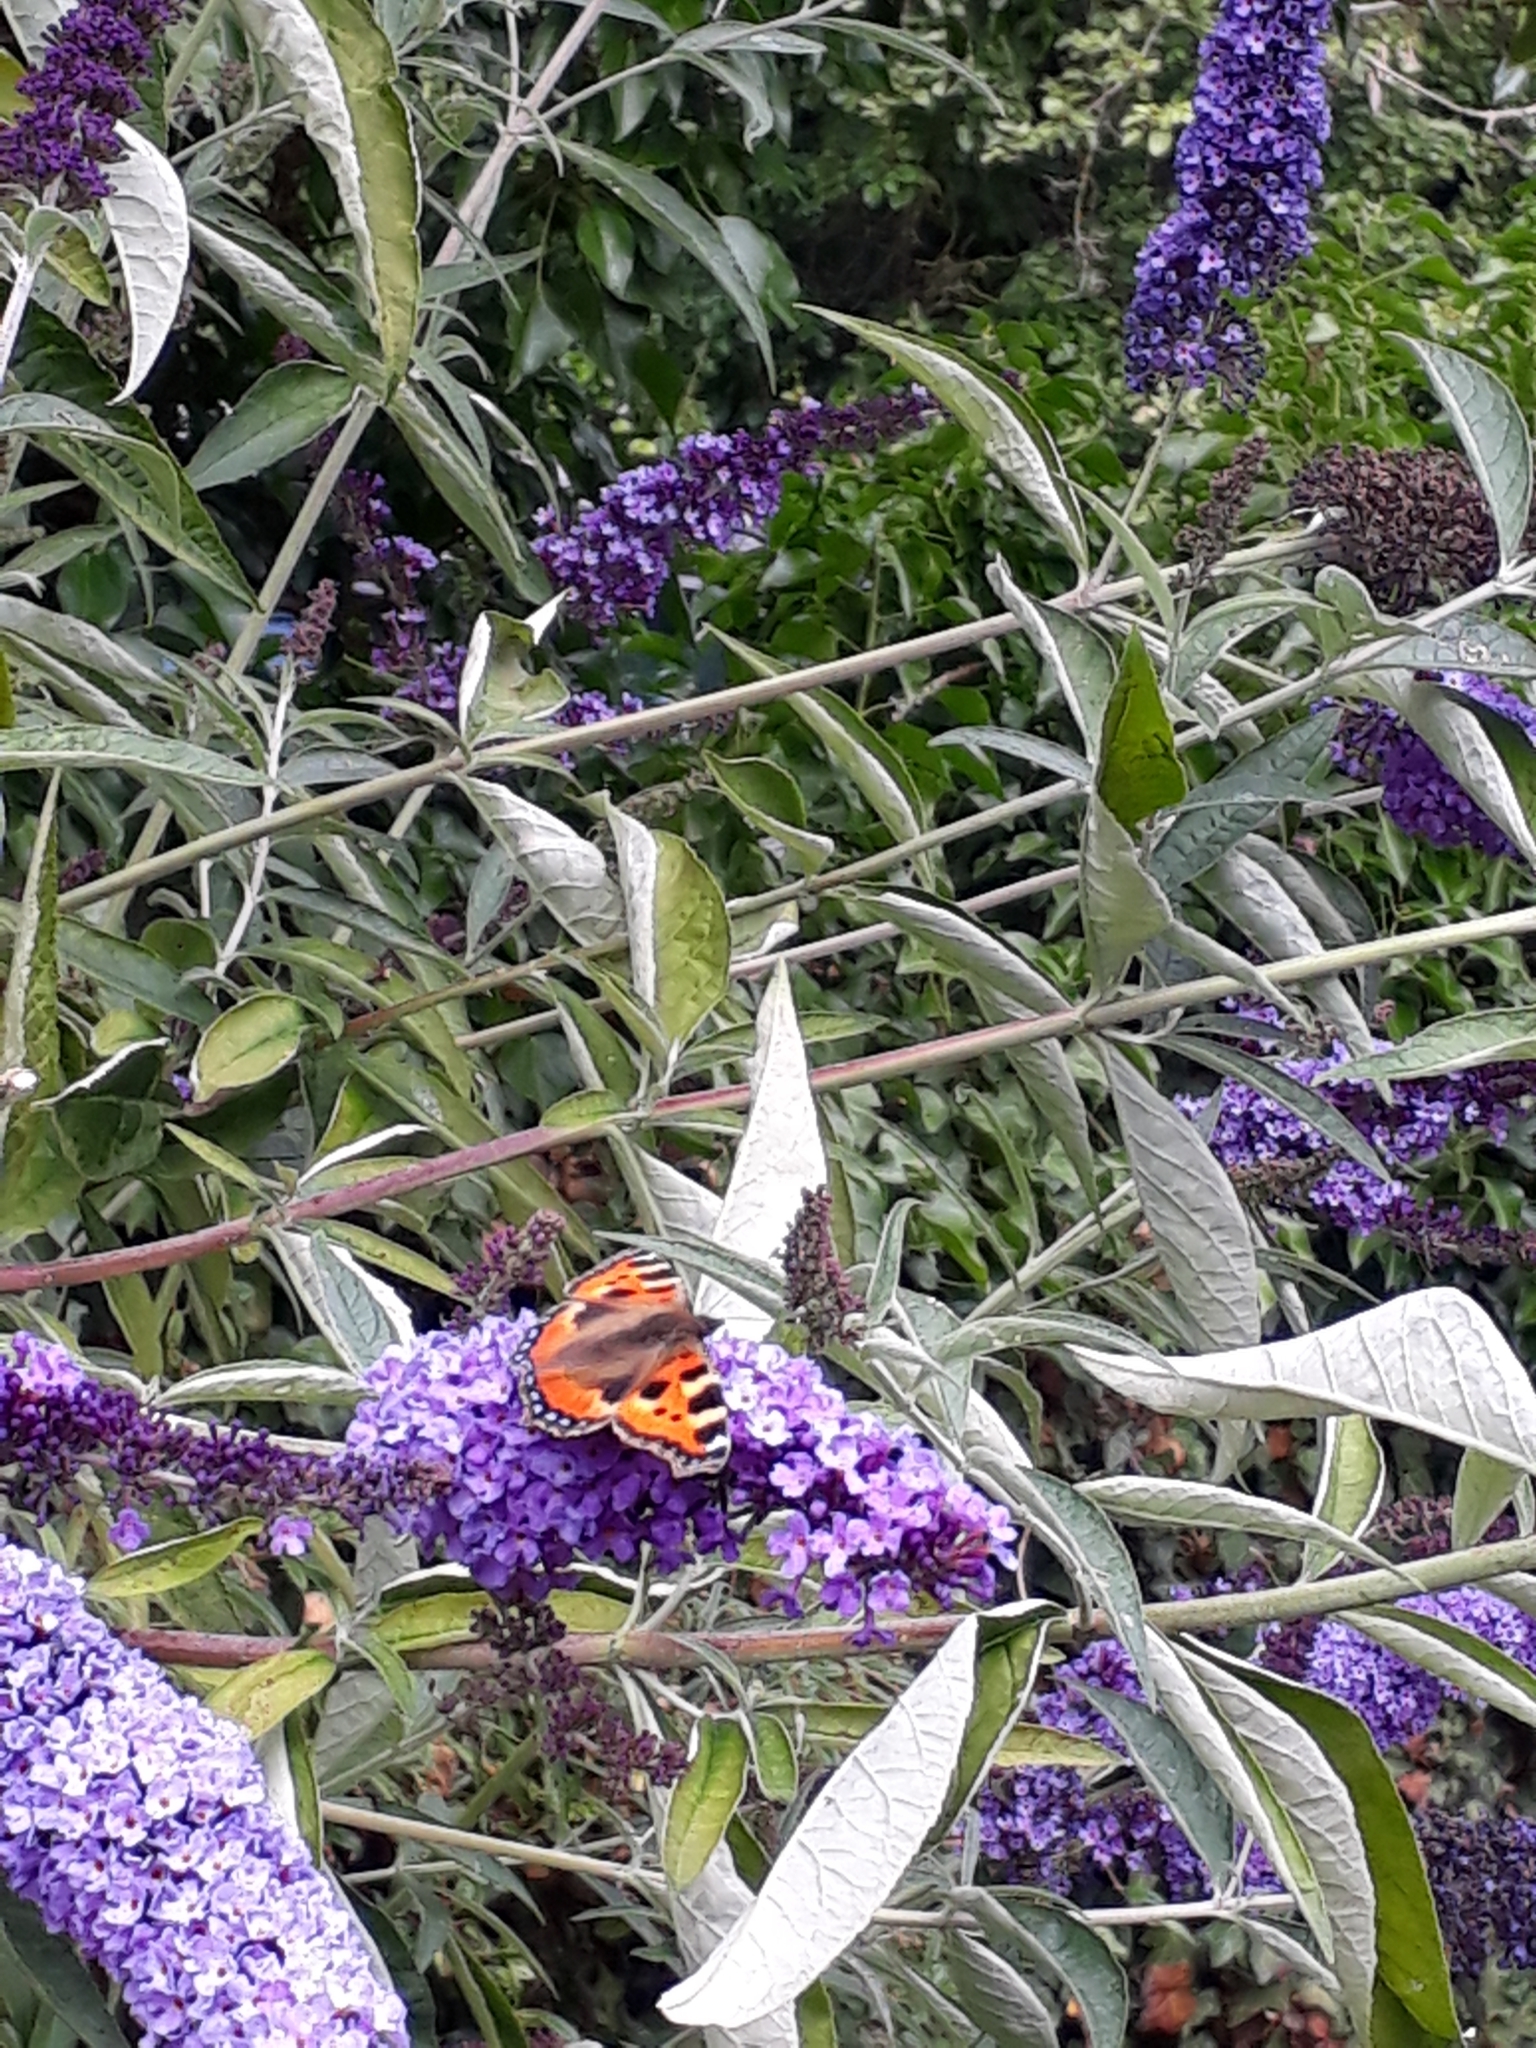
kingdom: Animalia
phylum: Arthropoda
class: Insecta
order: Lepidoptera
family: Nymphalidae
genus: Aglais
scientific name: Aglais urticae
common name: Small tortoiseshell
